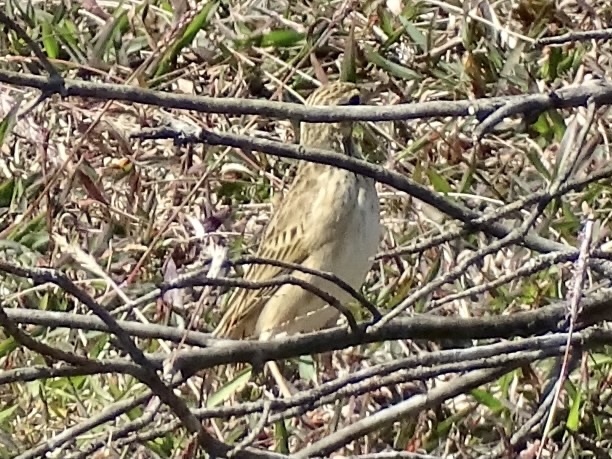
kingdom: Animalia
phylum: Chordata
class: Aves
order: Passeriformes
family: Motacillidae
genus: Anthus
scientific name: Anthus richardi
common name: Richard's pipit
